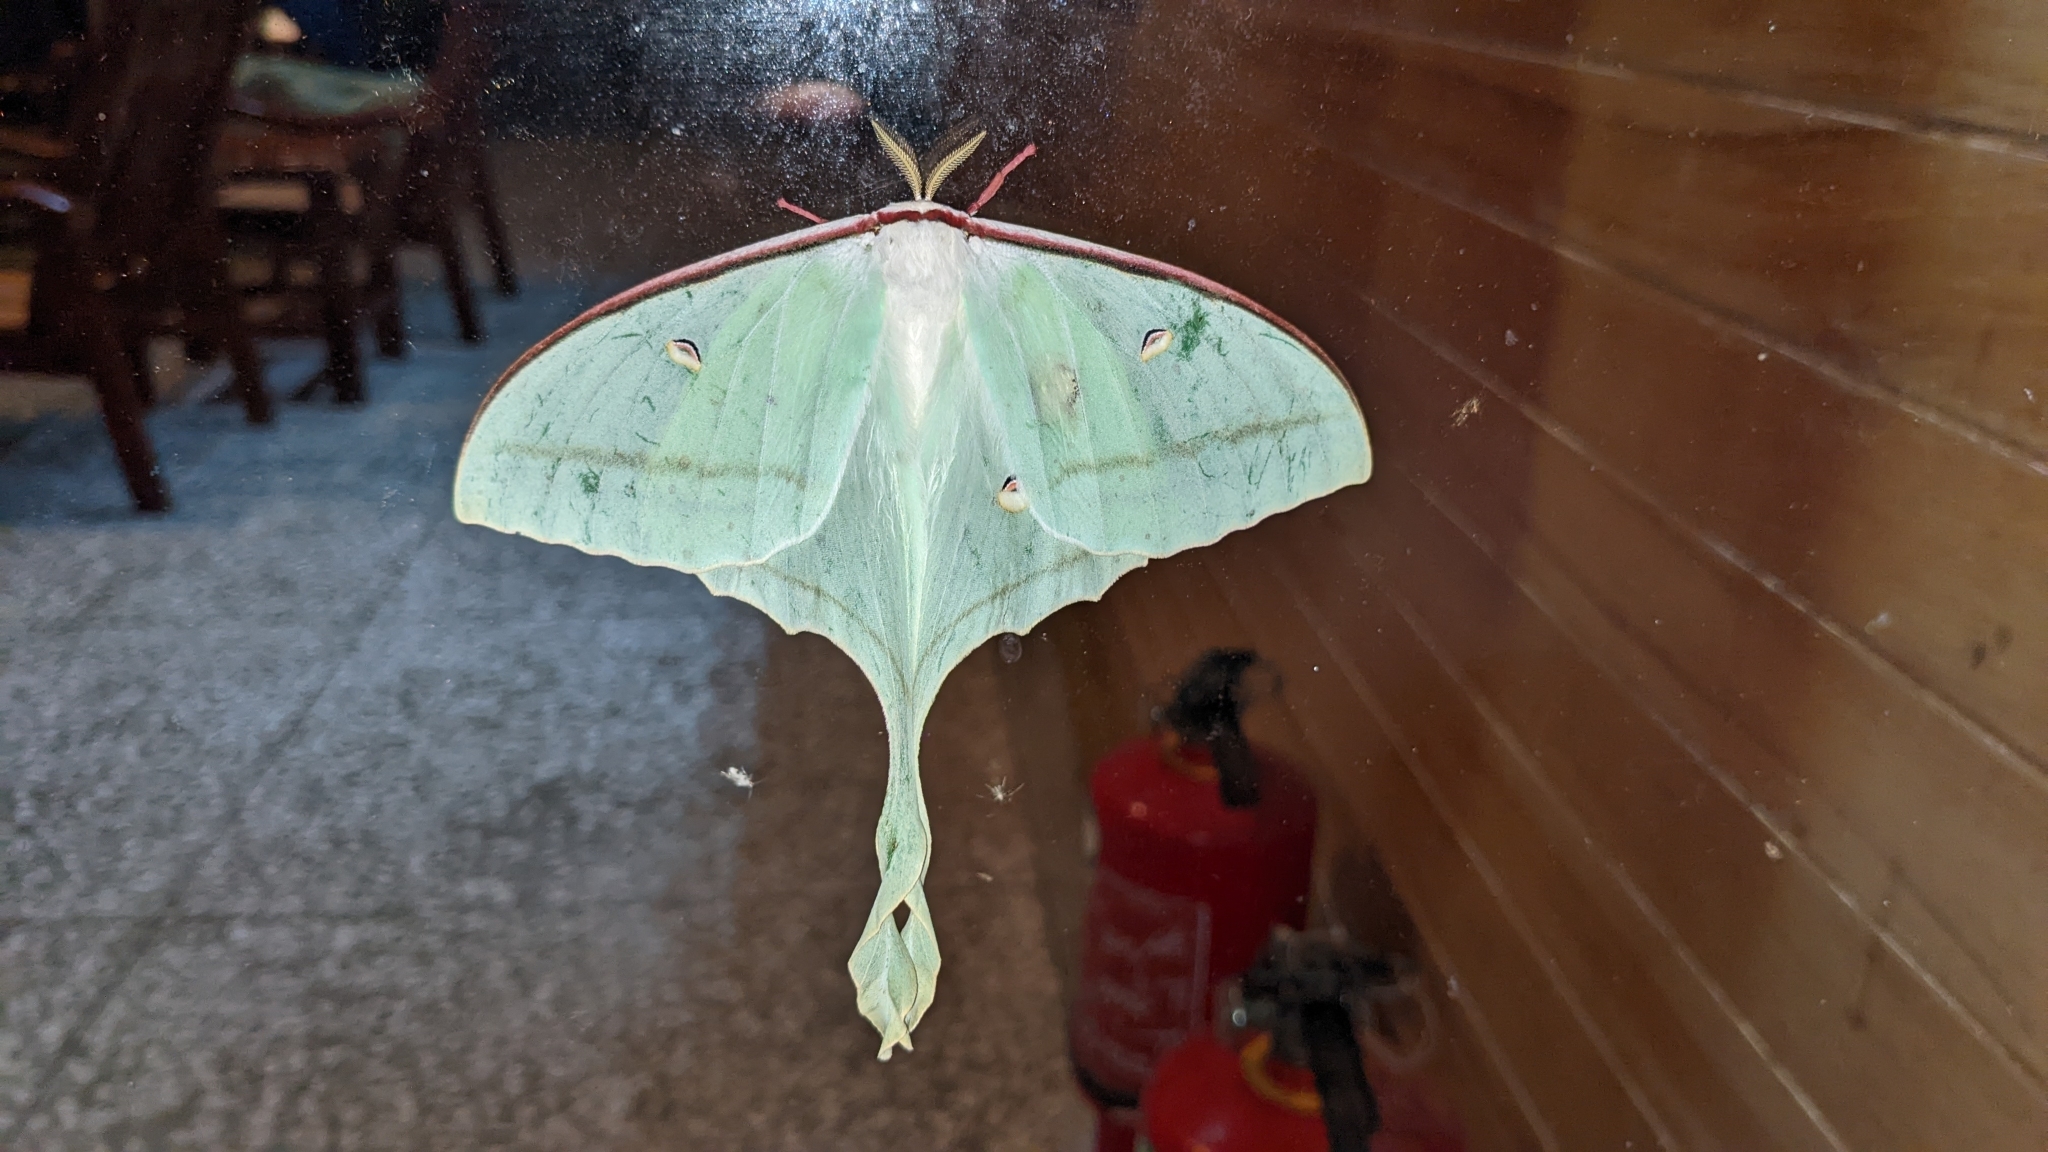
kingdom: Animalia
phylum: Arthropoda
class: Insecta
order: Lepidoptera
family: Saturniidae
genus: Actias
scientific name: Actias ningpoana
